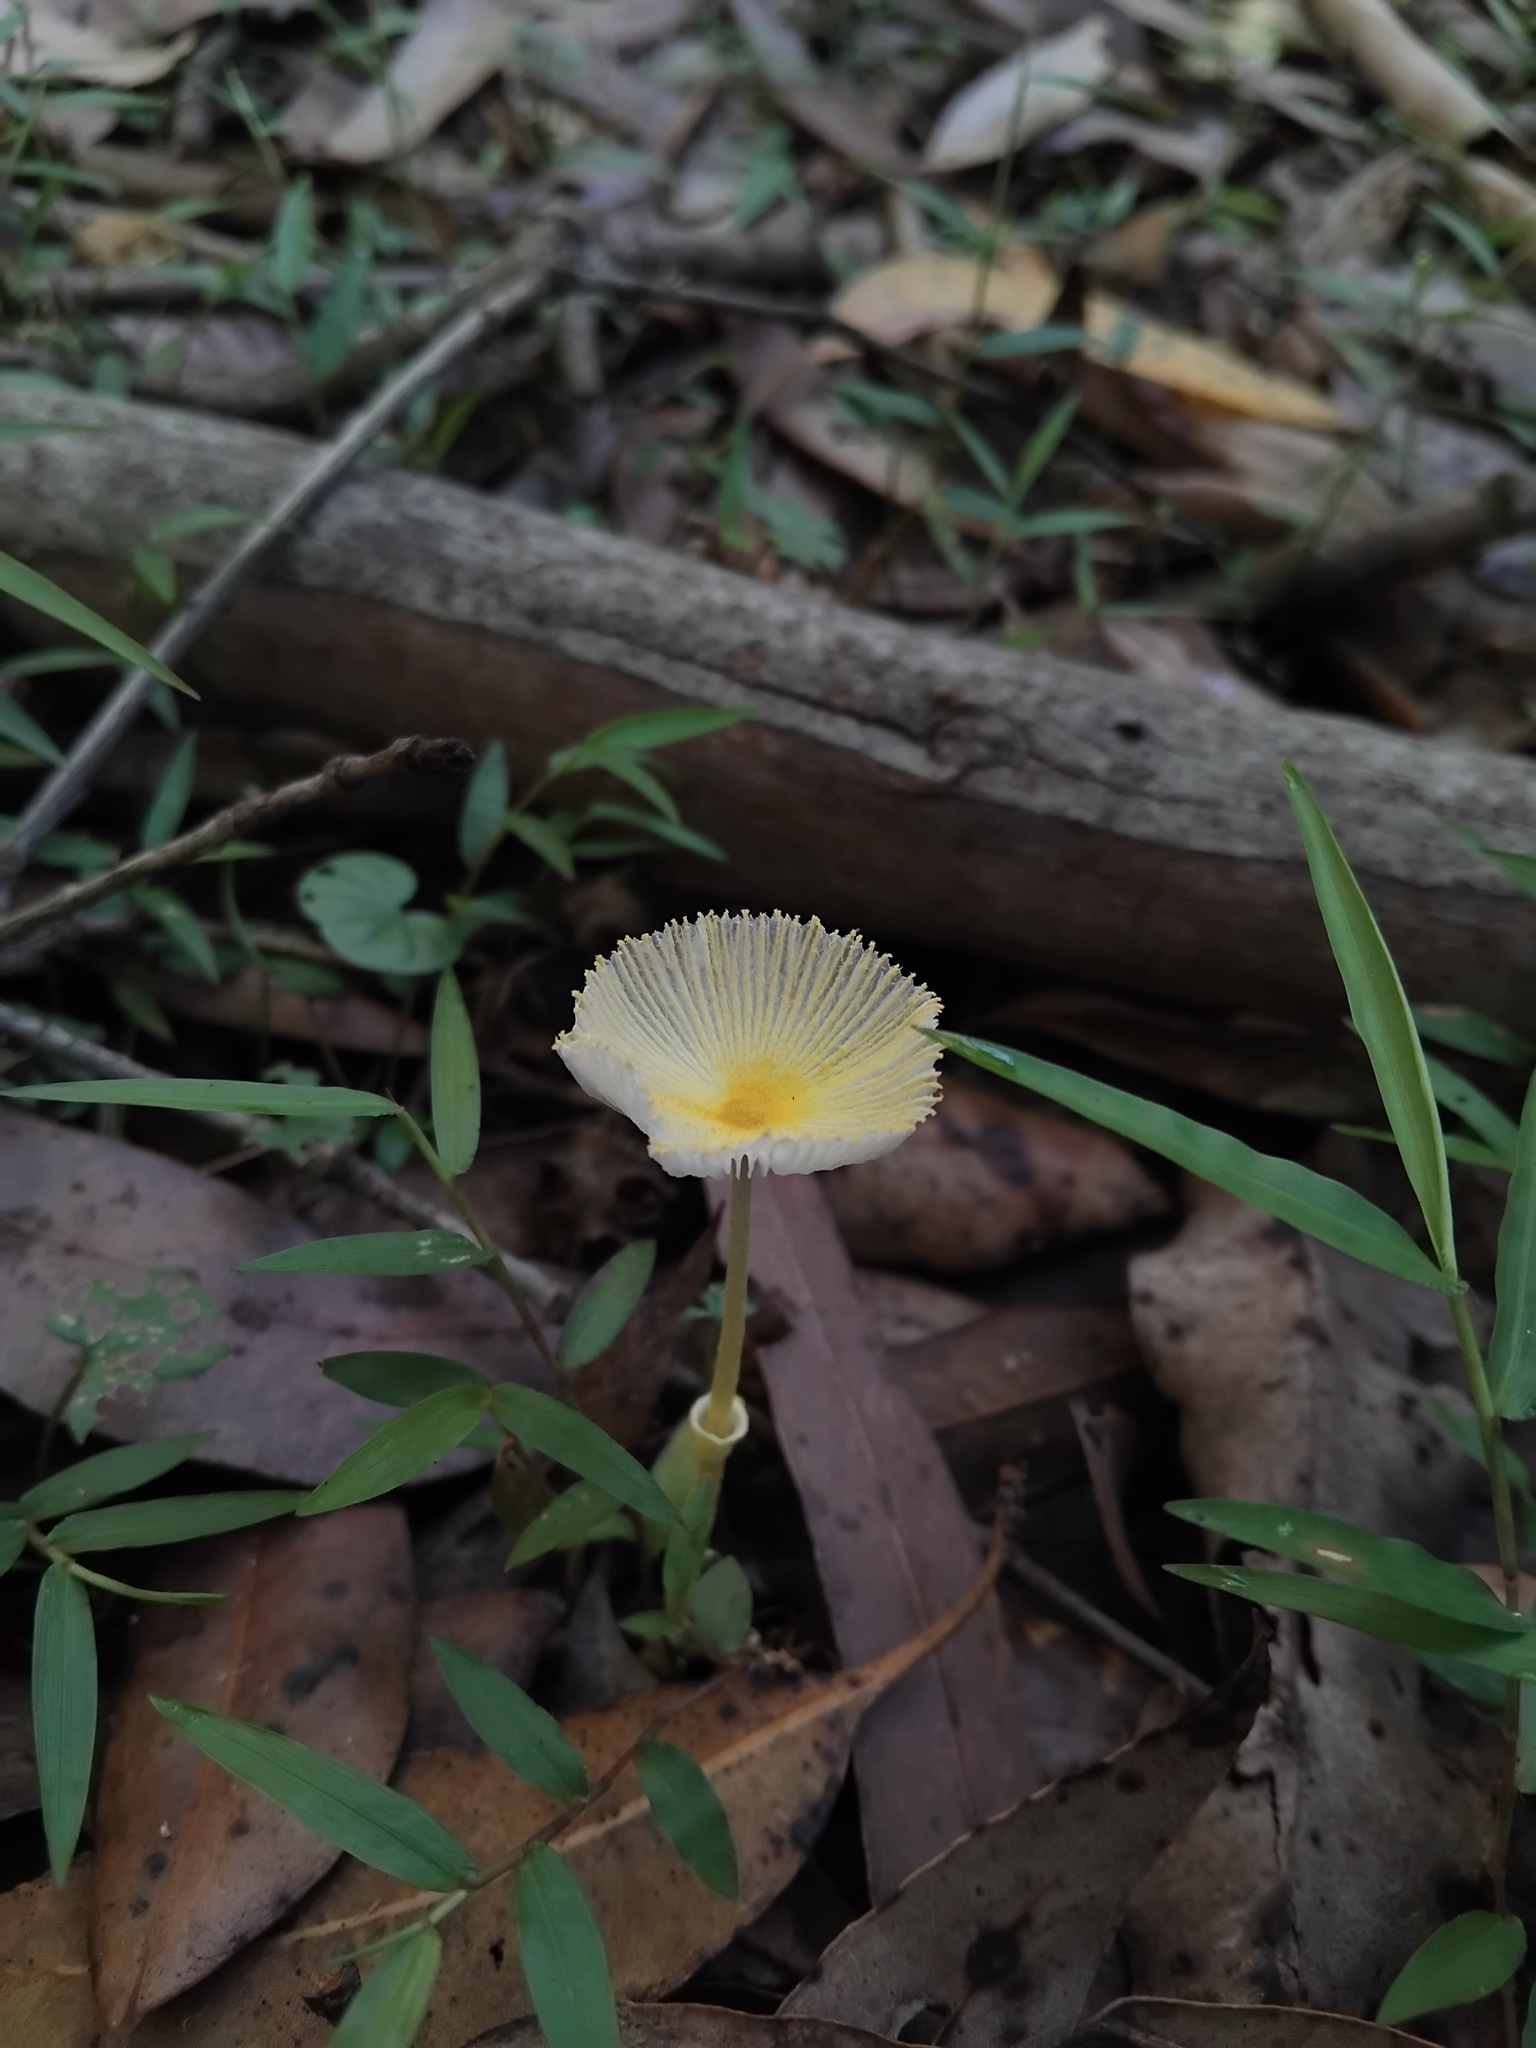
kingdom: Fungi
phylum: Basidiomycota
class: Agaricomycetes
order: Agaricales
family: Agaricaceae
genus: Leucocoprinus
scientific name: Leucocoprinus fragilissimus
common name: Fragile dapperling
